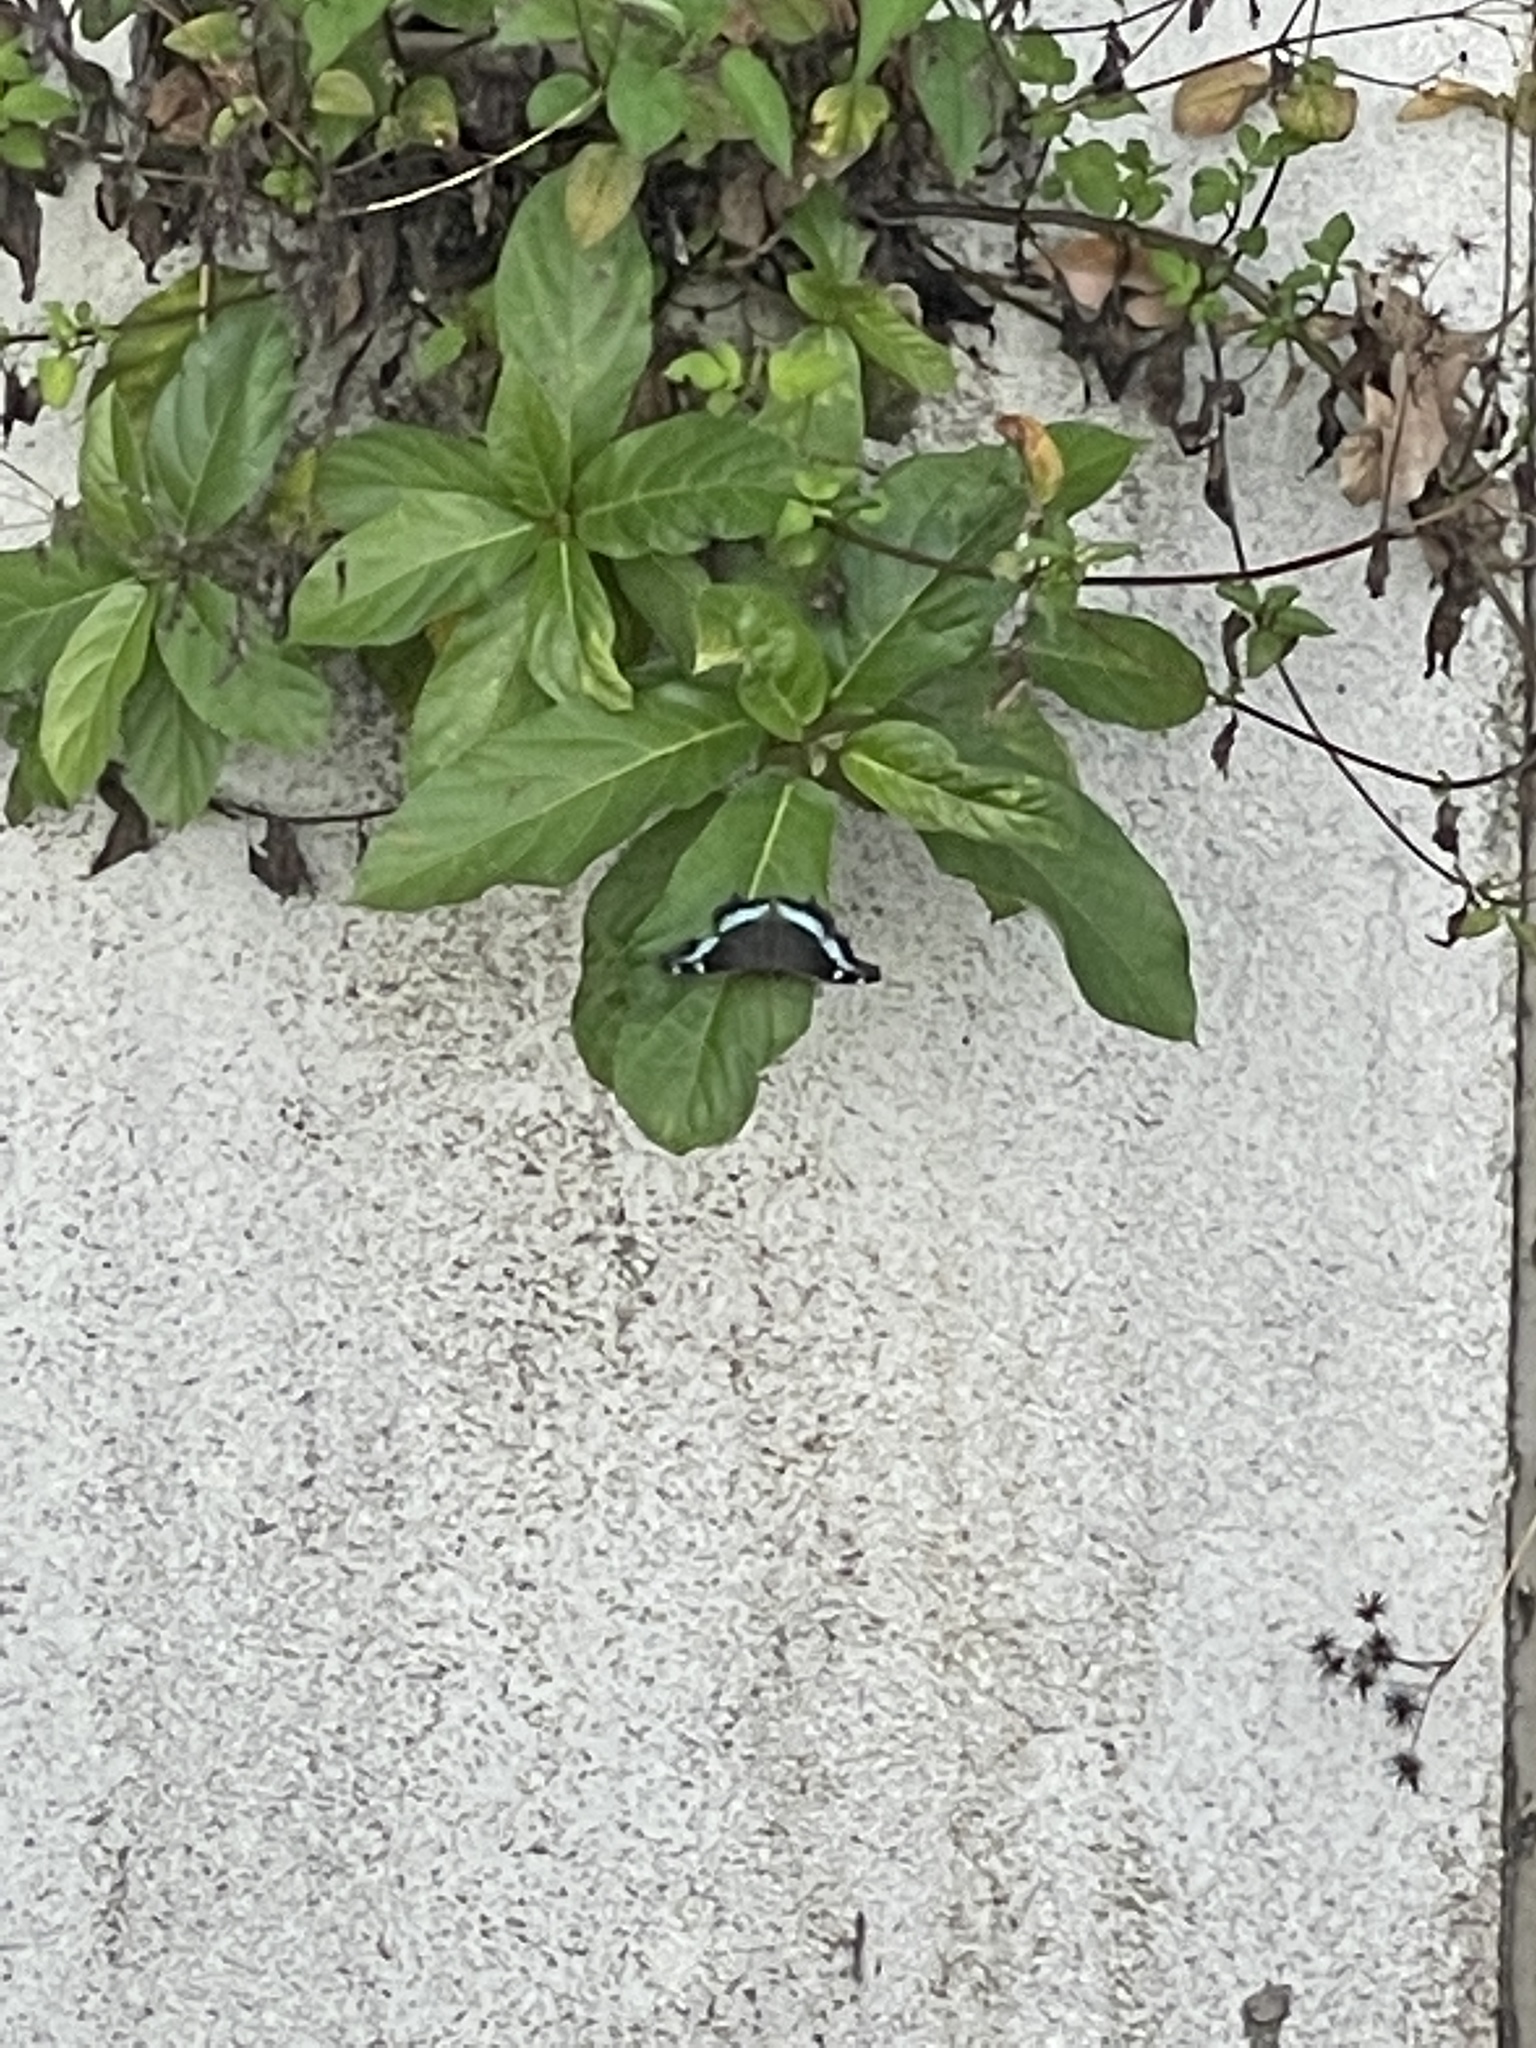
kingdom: Animalia
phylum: Arthropoda
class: Insecta
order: Lepidoptera
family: Nymphalidae
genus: Vanessa
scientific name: Vanessa Kaniska canace
